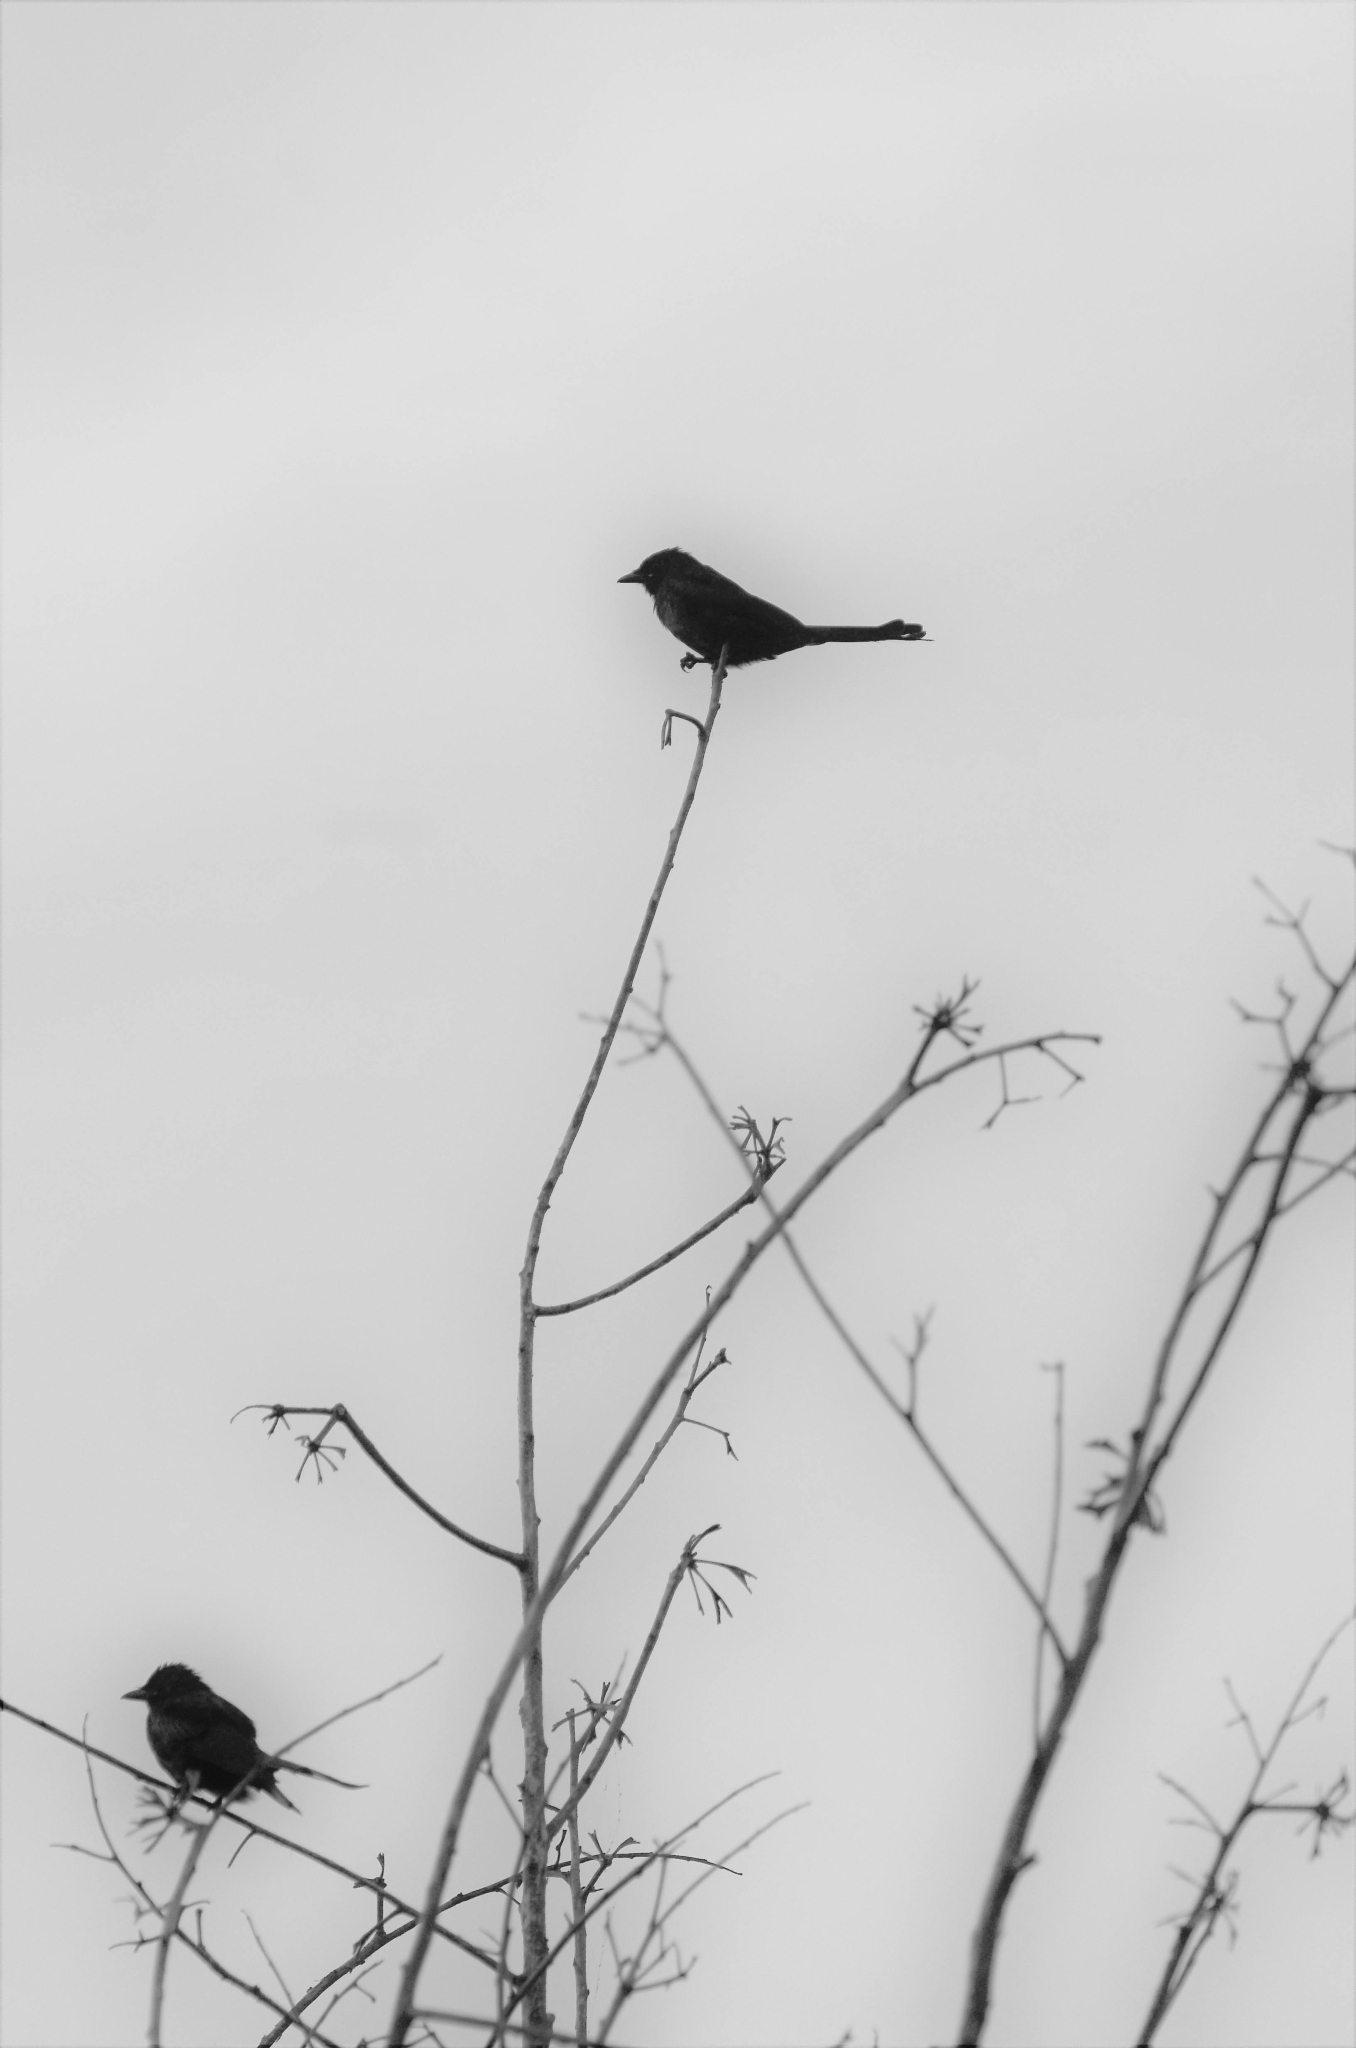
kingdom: Animalia
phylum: Chordata
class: Aves
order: Passeriformes
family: Dicruridae
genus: Dicrurus
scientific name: Dicrurus macrocercus
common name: Black drongo
